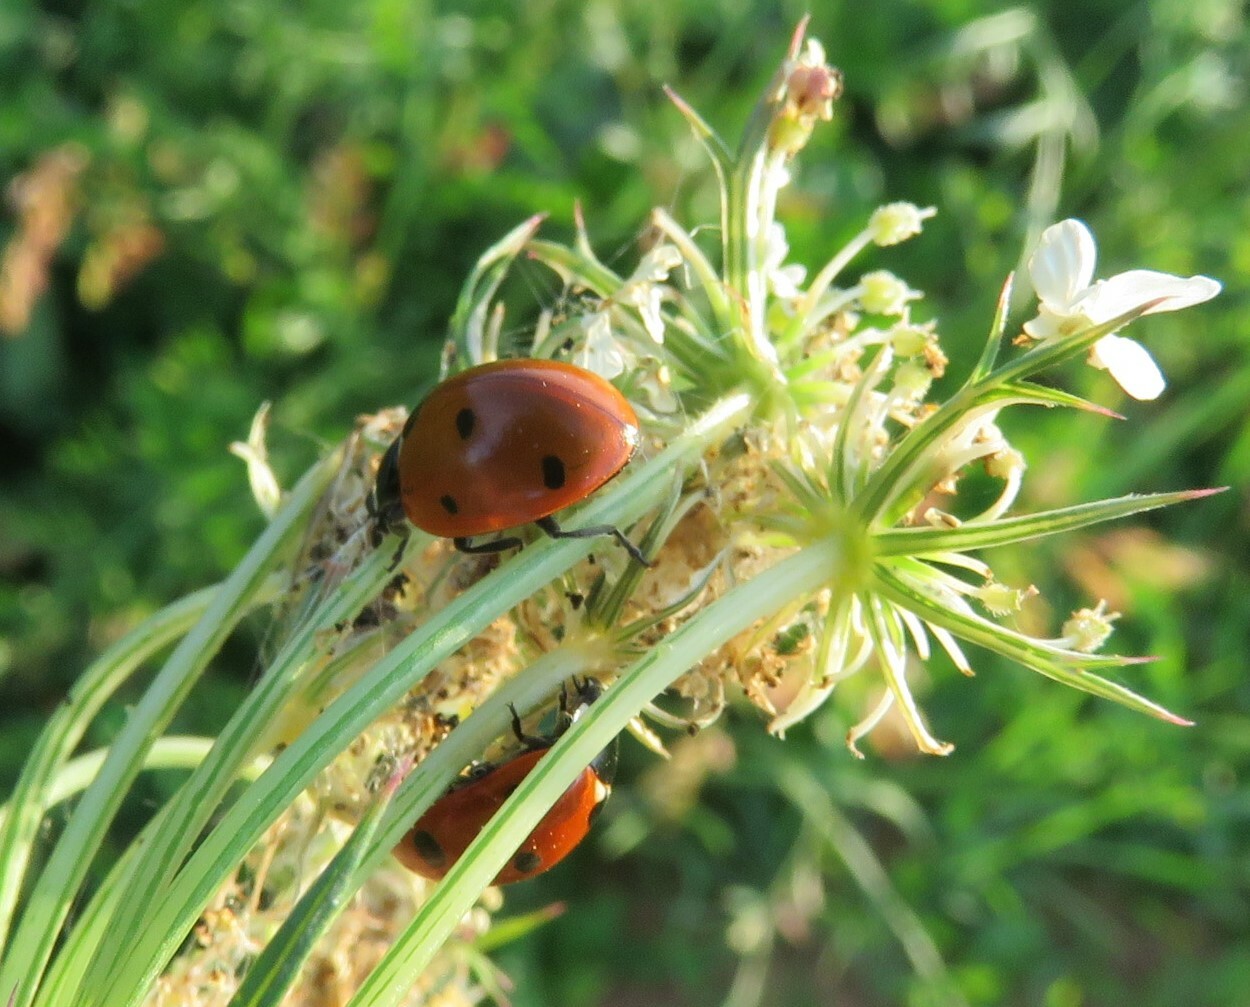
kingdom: Animalia
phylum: Arthropoda
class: Insecta
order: Coleoptera
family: Coccinellidae
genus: Coccinella
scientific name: Coccinella septempunctata
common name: Sevenspotted lady beetle
